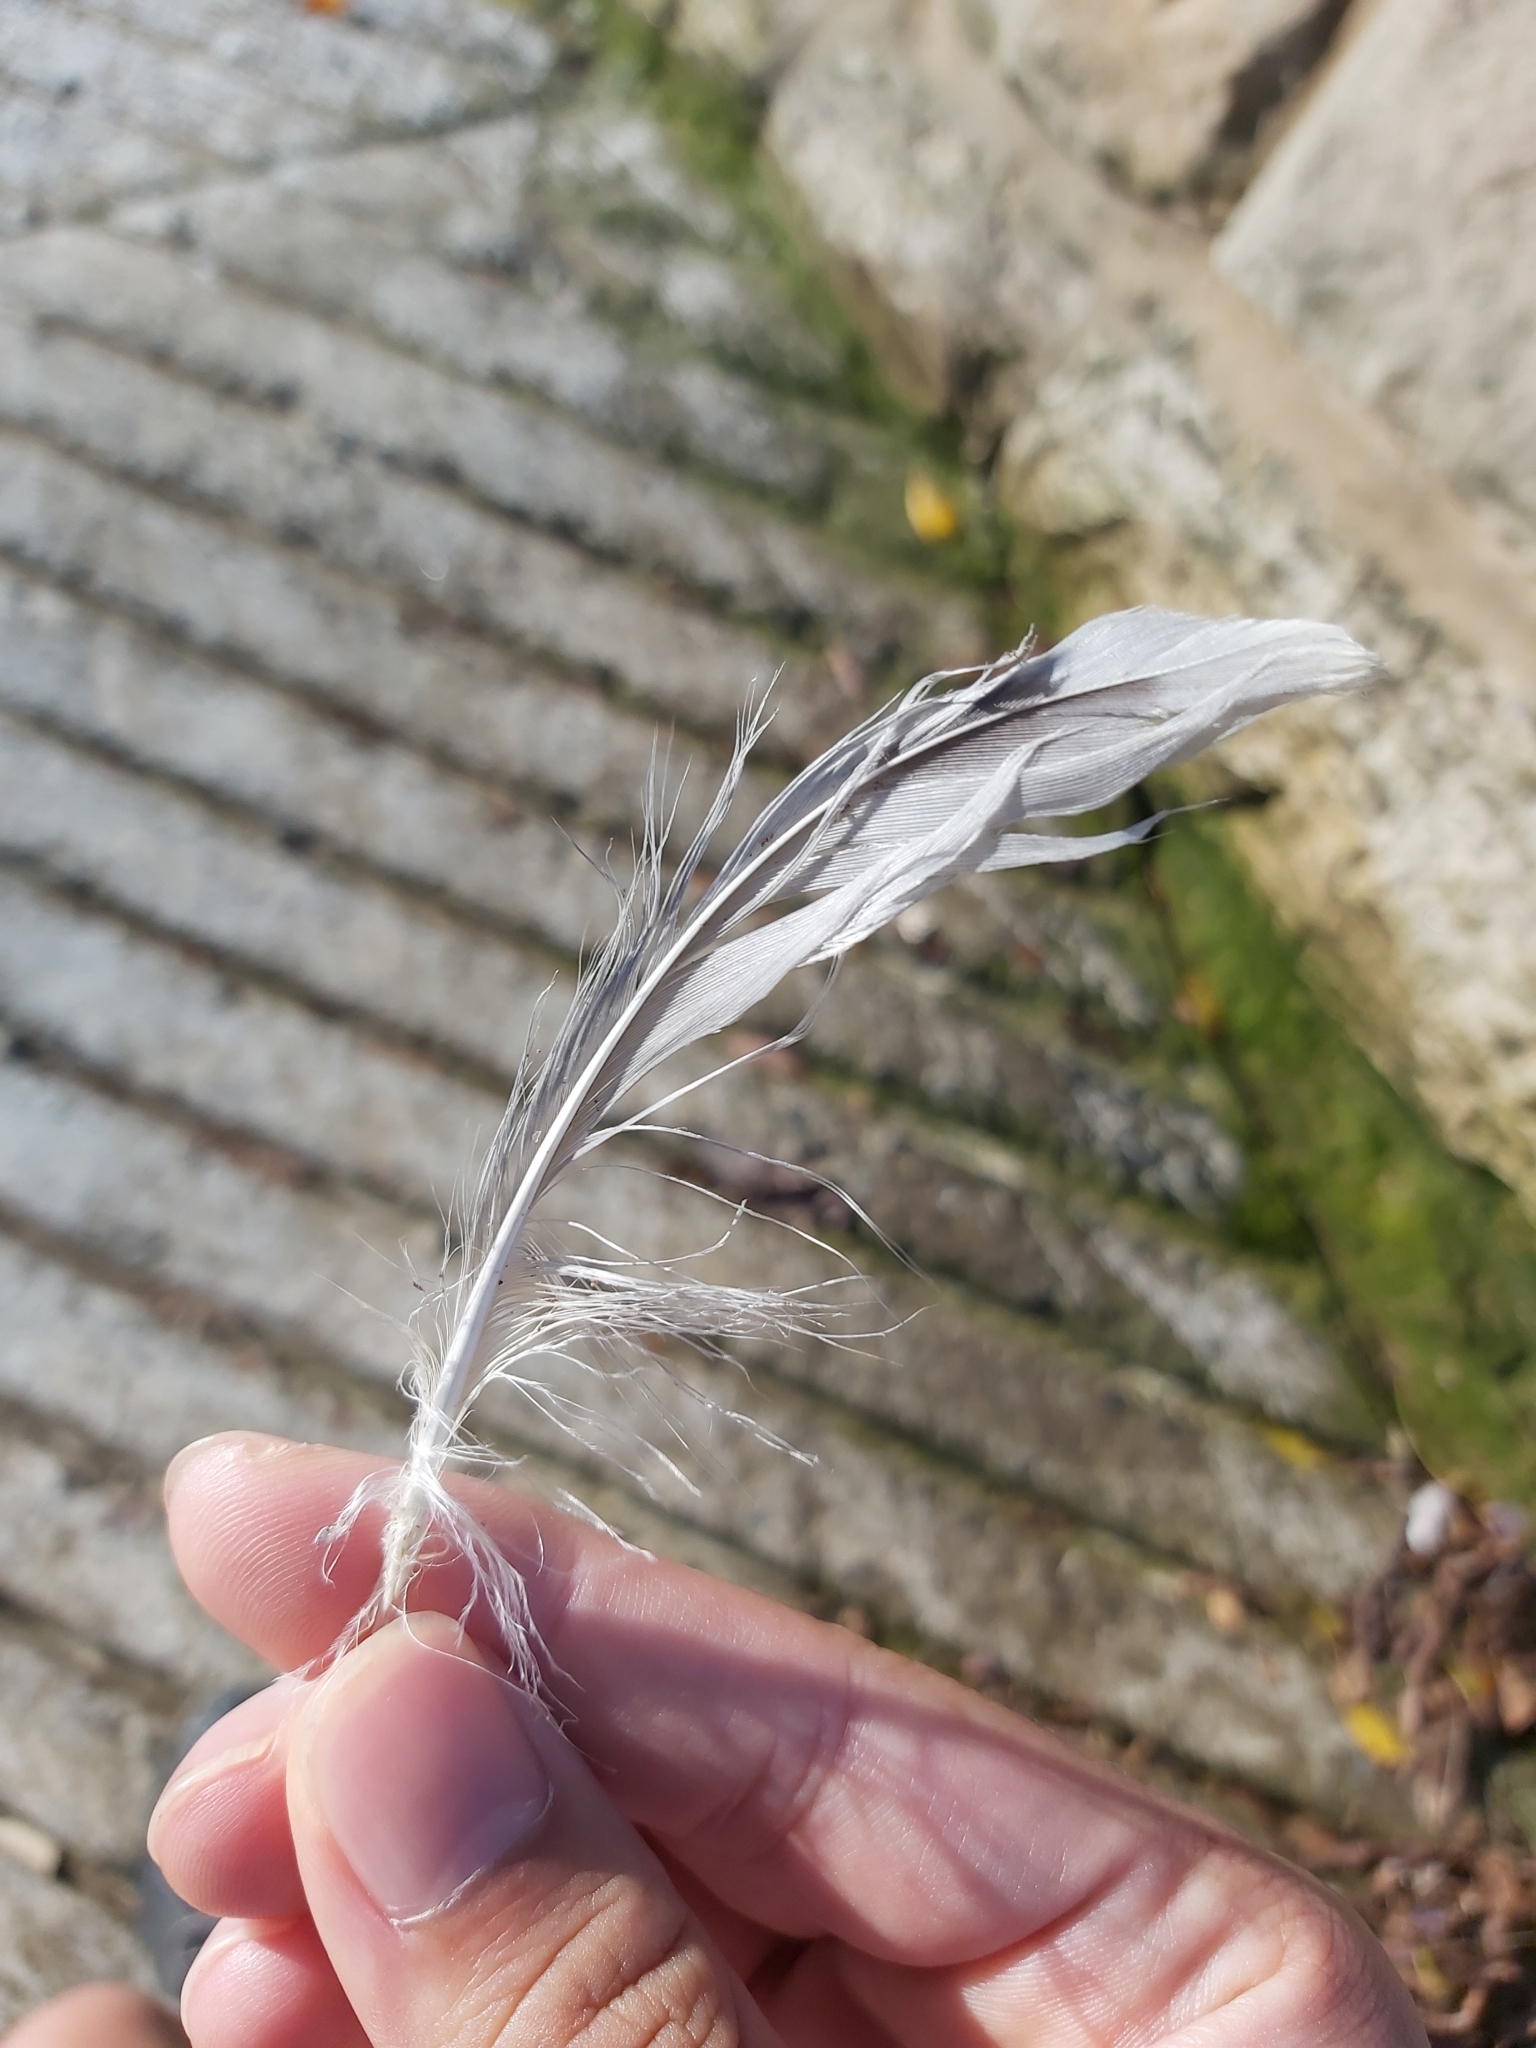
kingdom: Animalia
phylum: Chordata
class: Aves
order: Charadriiformes
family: Laridae
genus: Chroicocephalus
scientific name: Chroicocephalus novaehollandiae
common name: Silver gull
